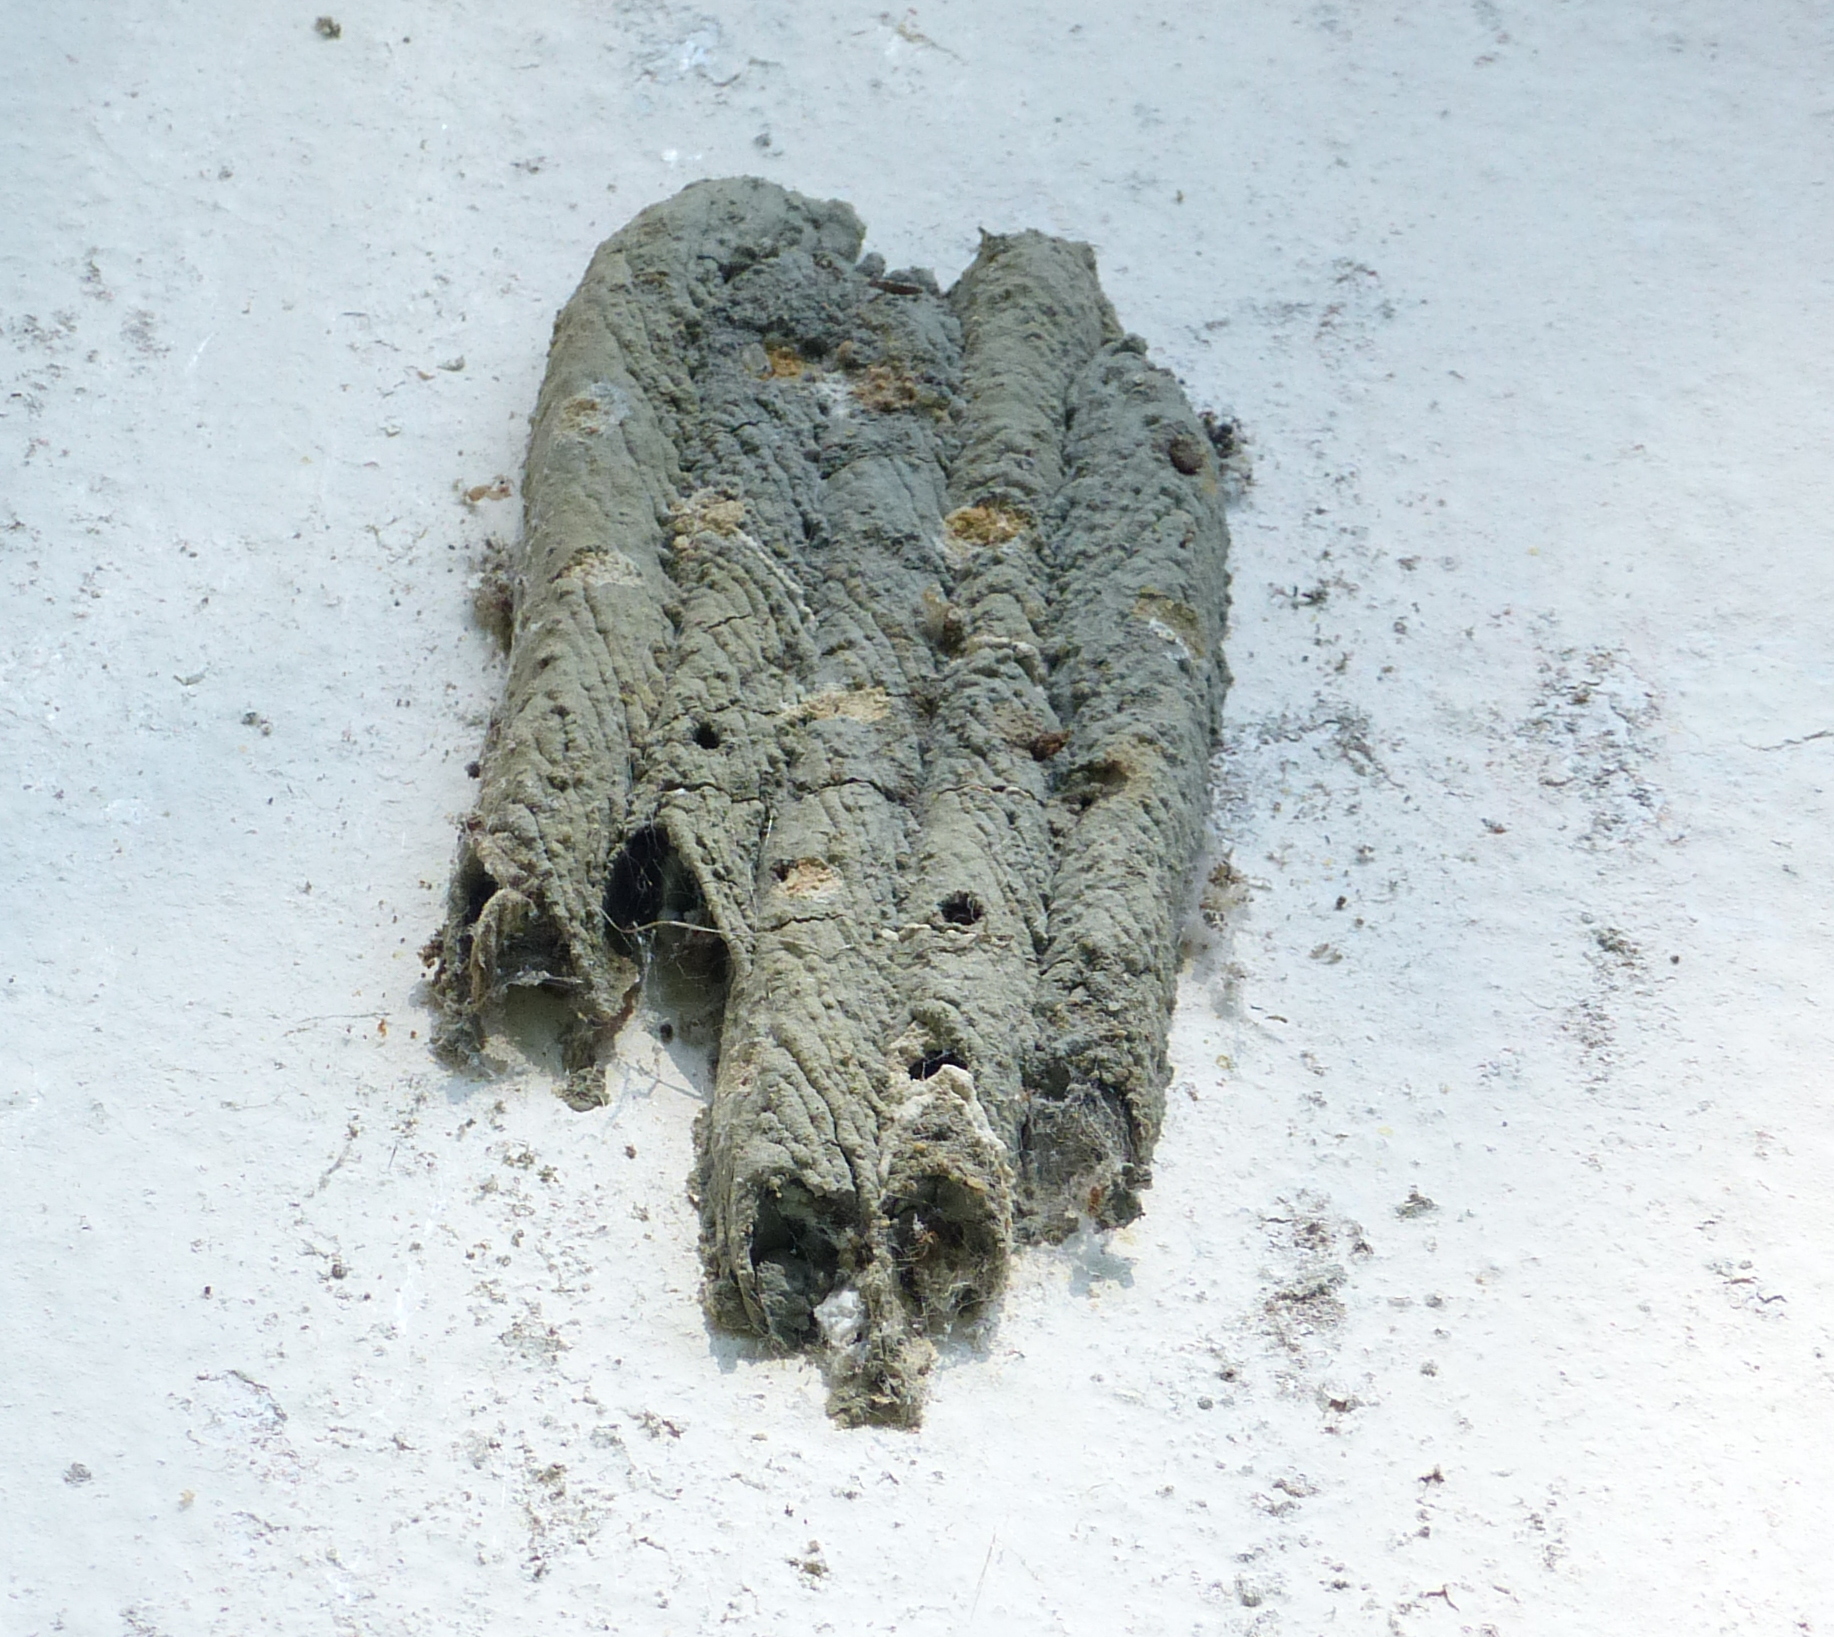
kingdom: Animalia
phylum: Arthropoda
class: Insecta
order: Hymenoptera
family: Crabronidae
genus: Trypoxylon
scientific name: Trypoxylon albitarse
